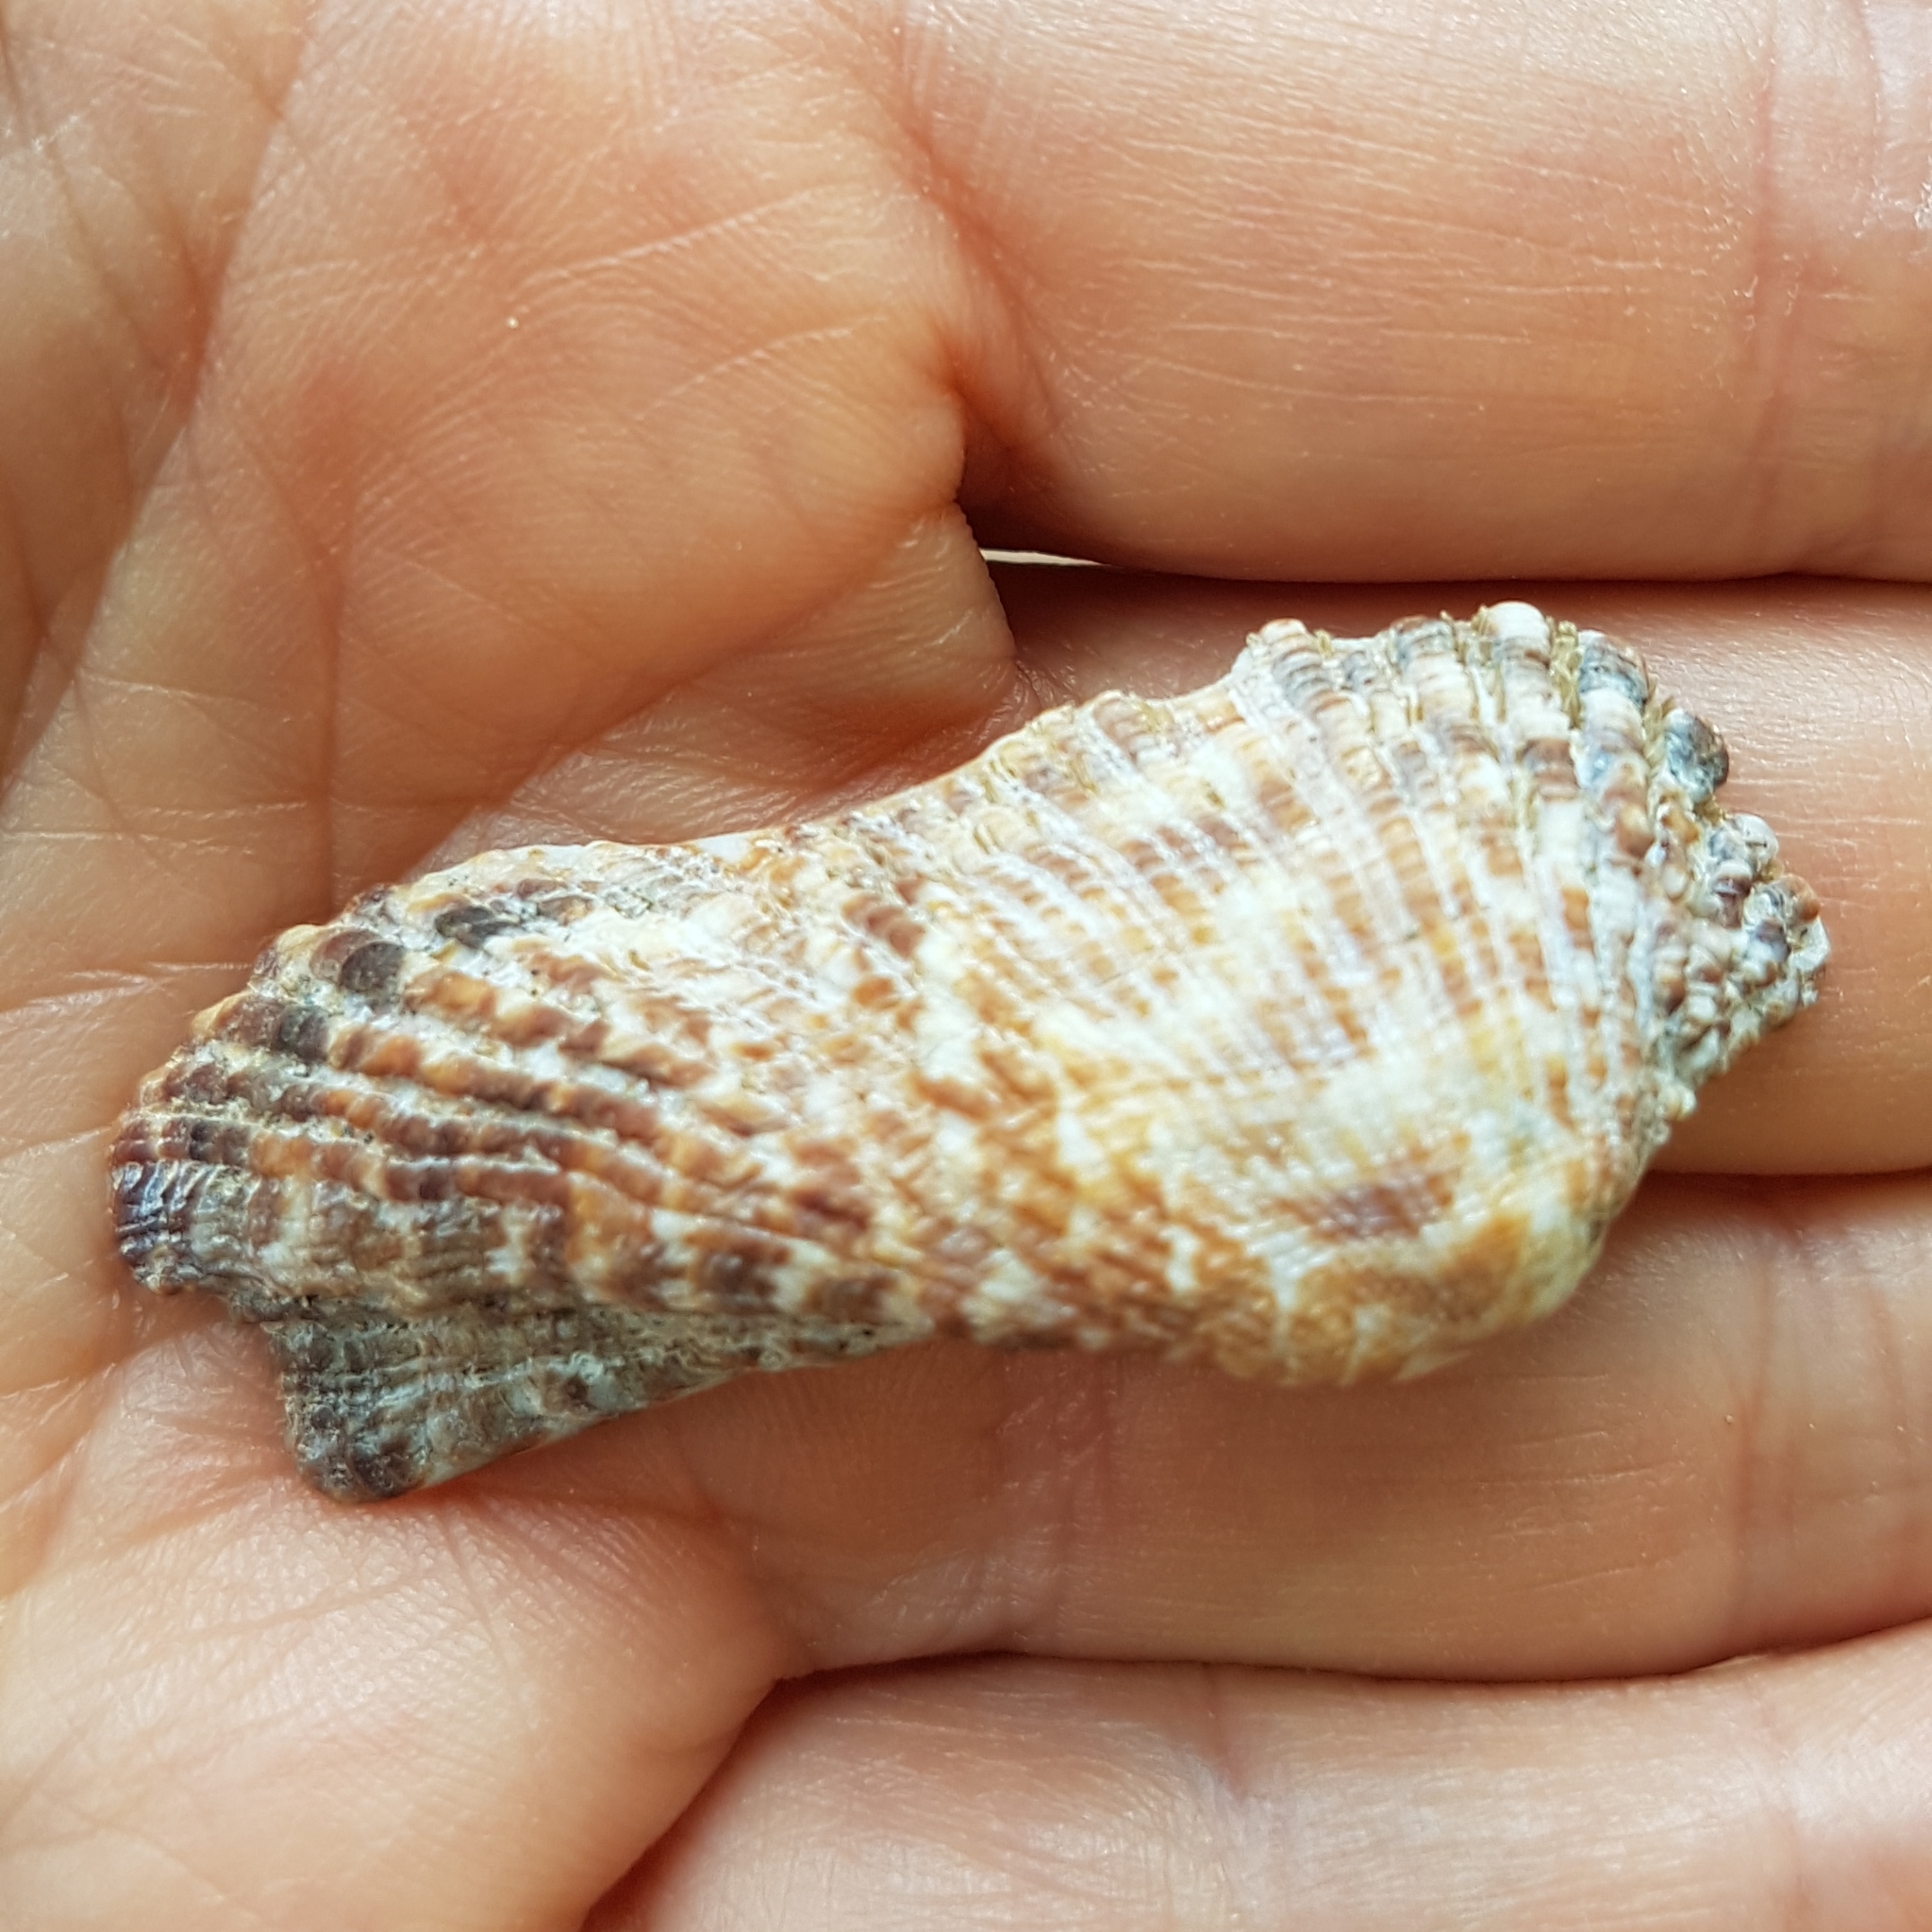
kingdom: Animalia
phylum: Mollusca
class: Bivalvia
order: Arcida
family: Arcidae
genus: Arca
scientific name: Arca noae
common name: Noah's arch
